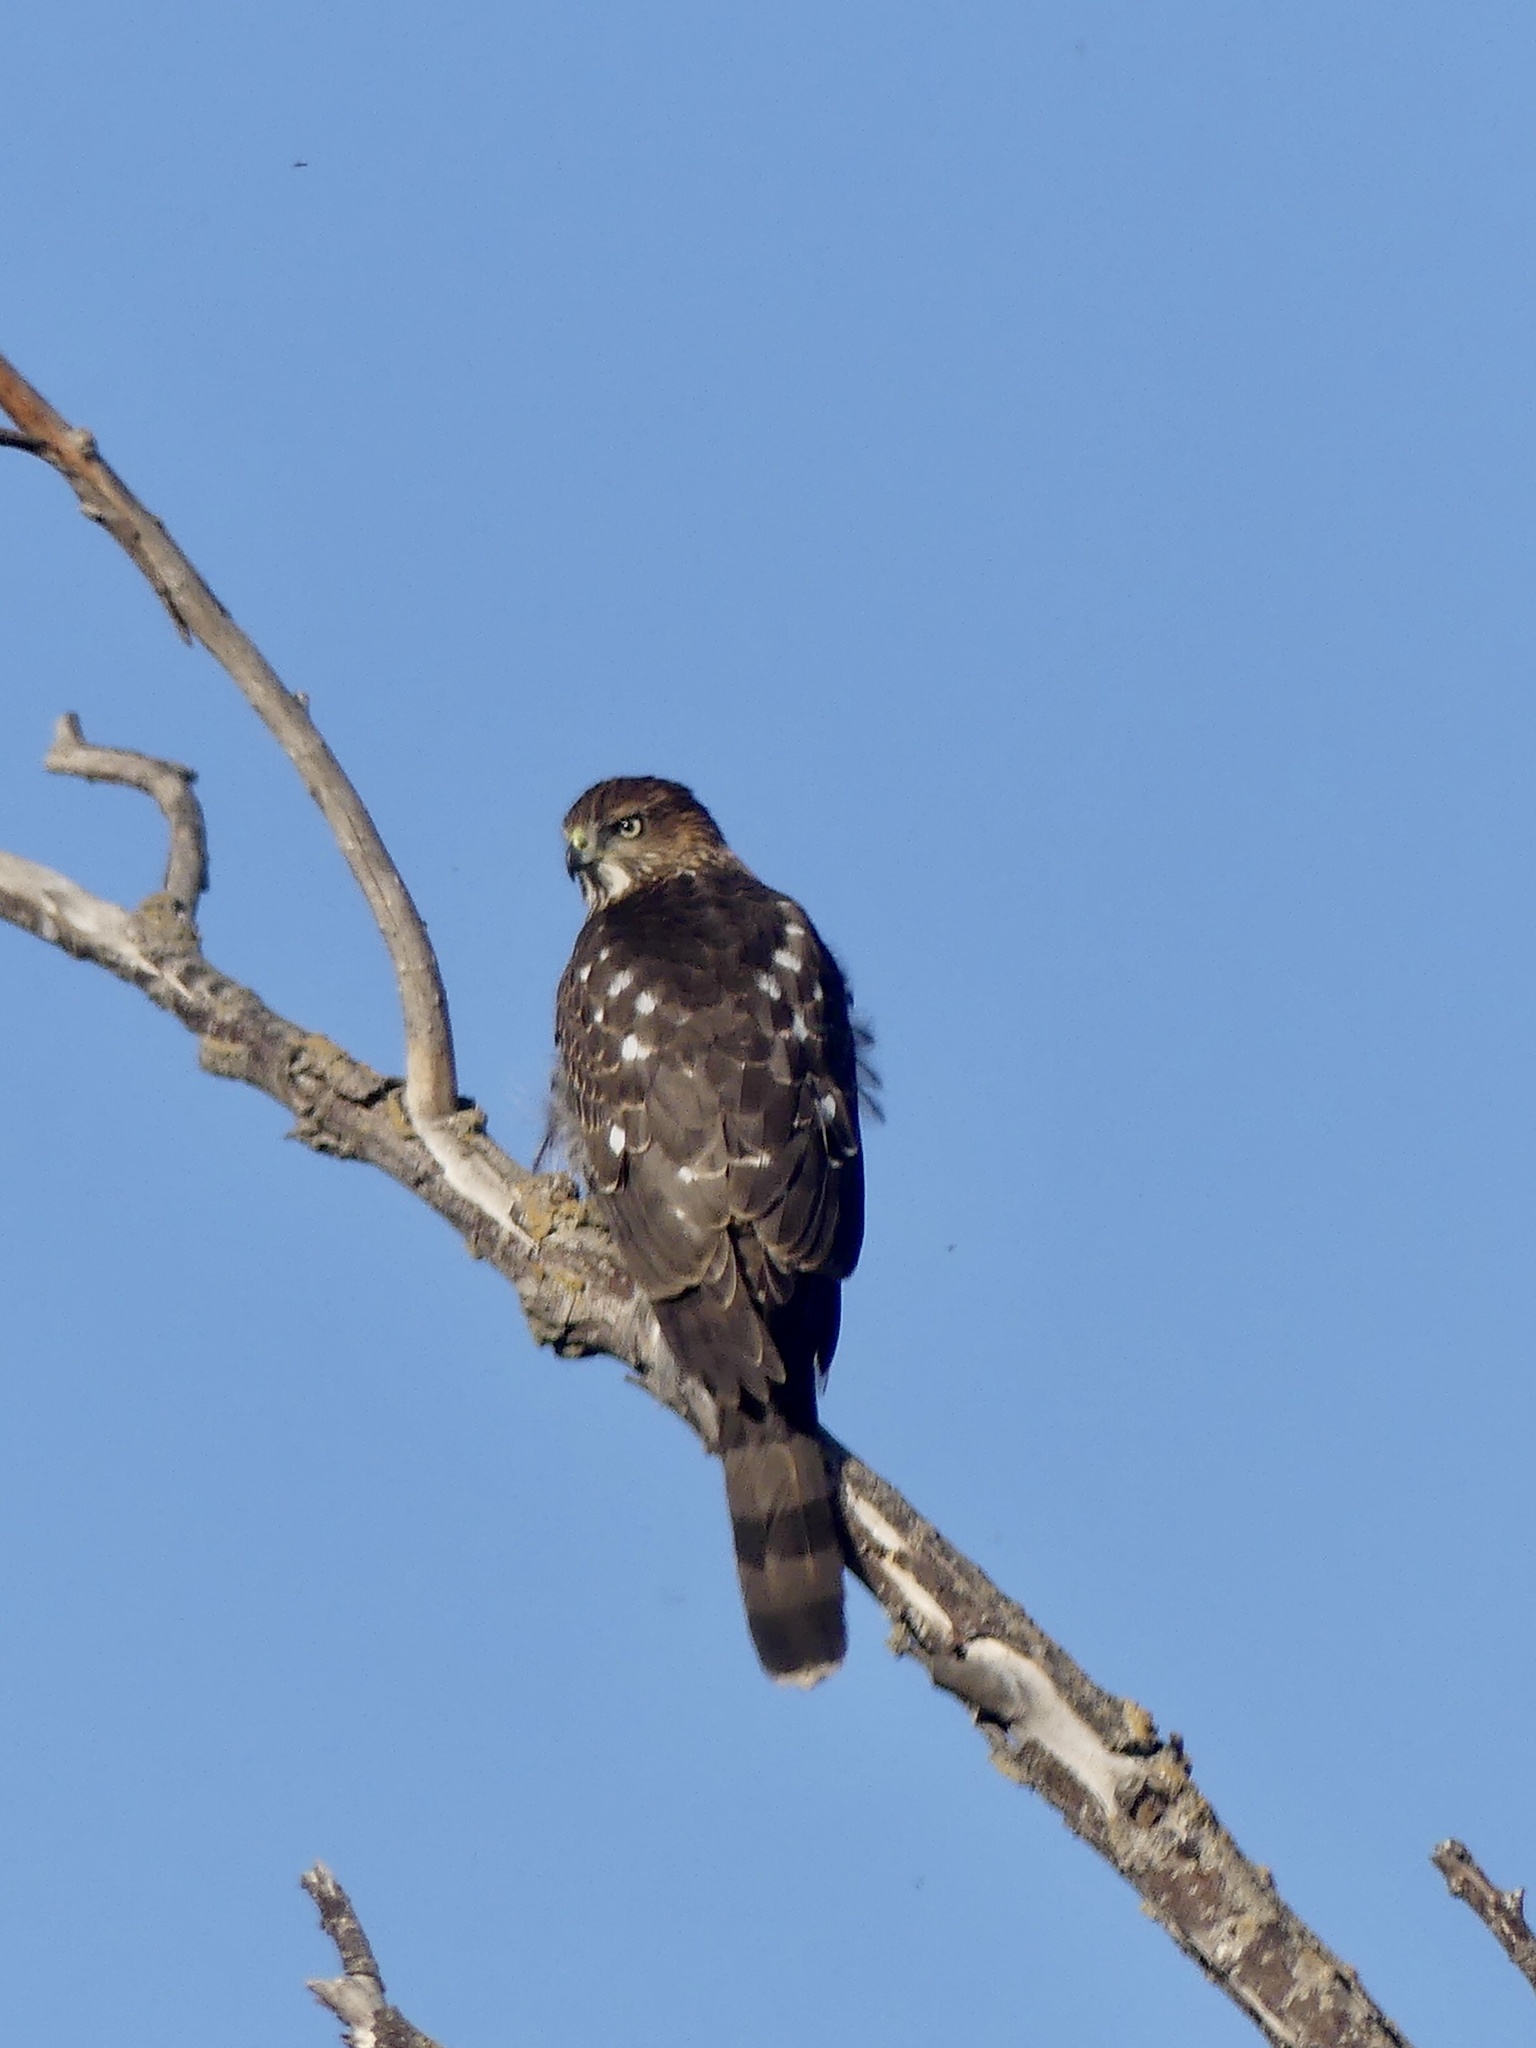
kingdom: Animalia
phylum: Chordata
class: Aves
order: Accipitriformes
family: Accipitridae
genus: Accipiter
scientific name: Accipiter cooperii
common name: Cooper's hawk
